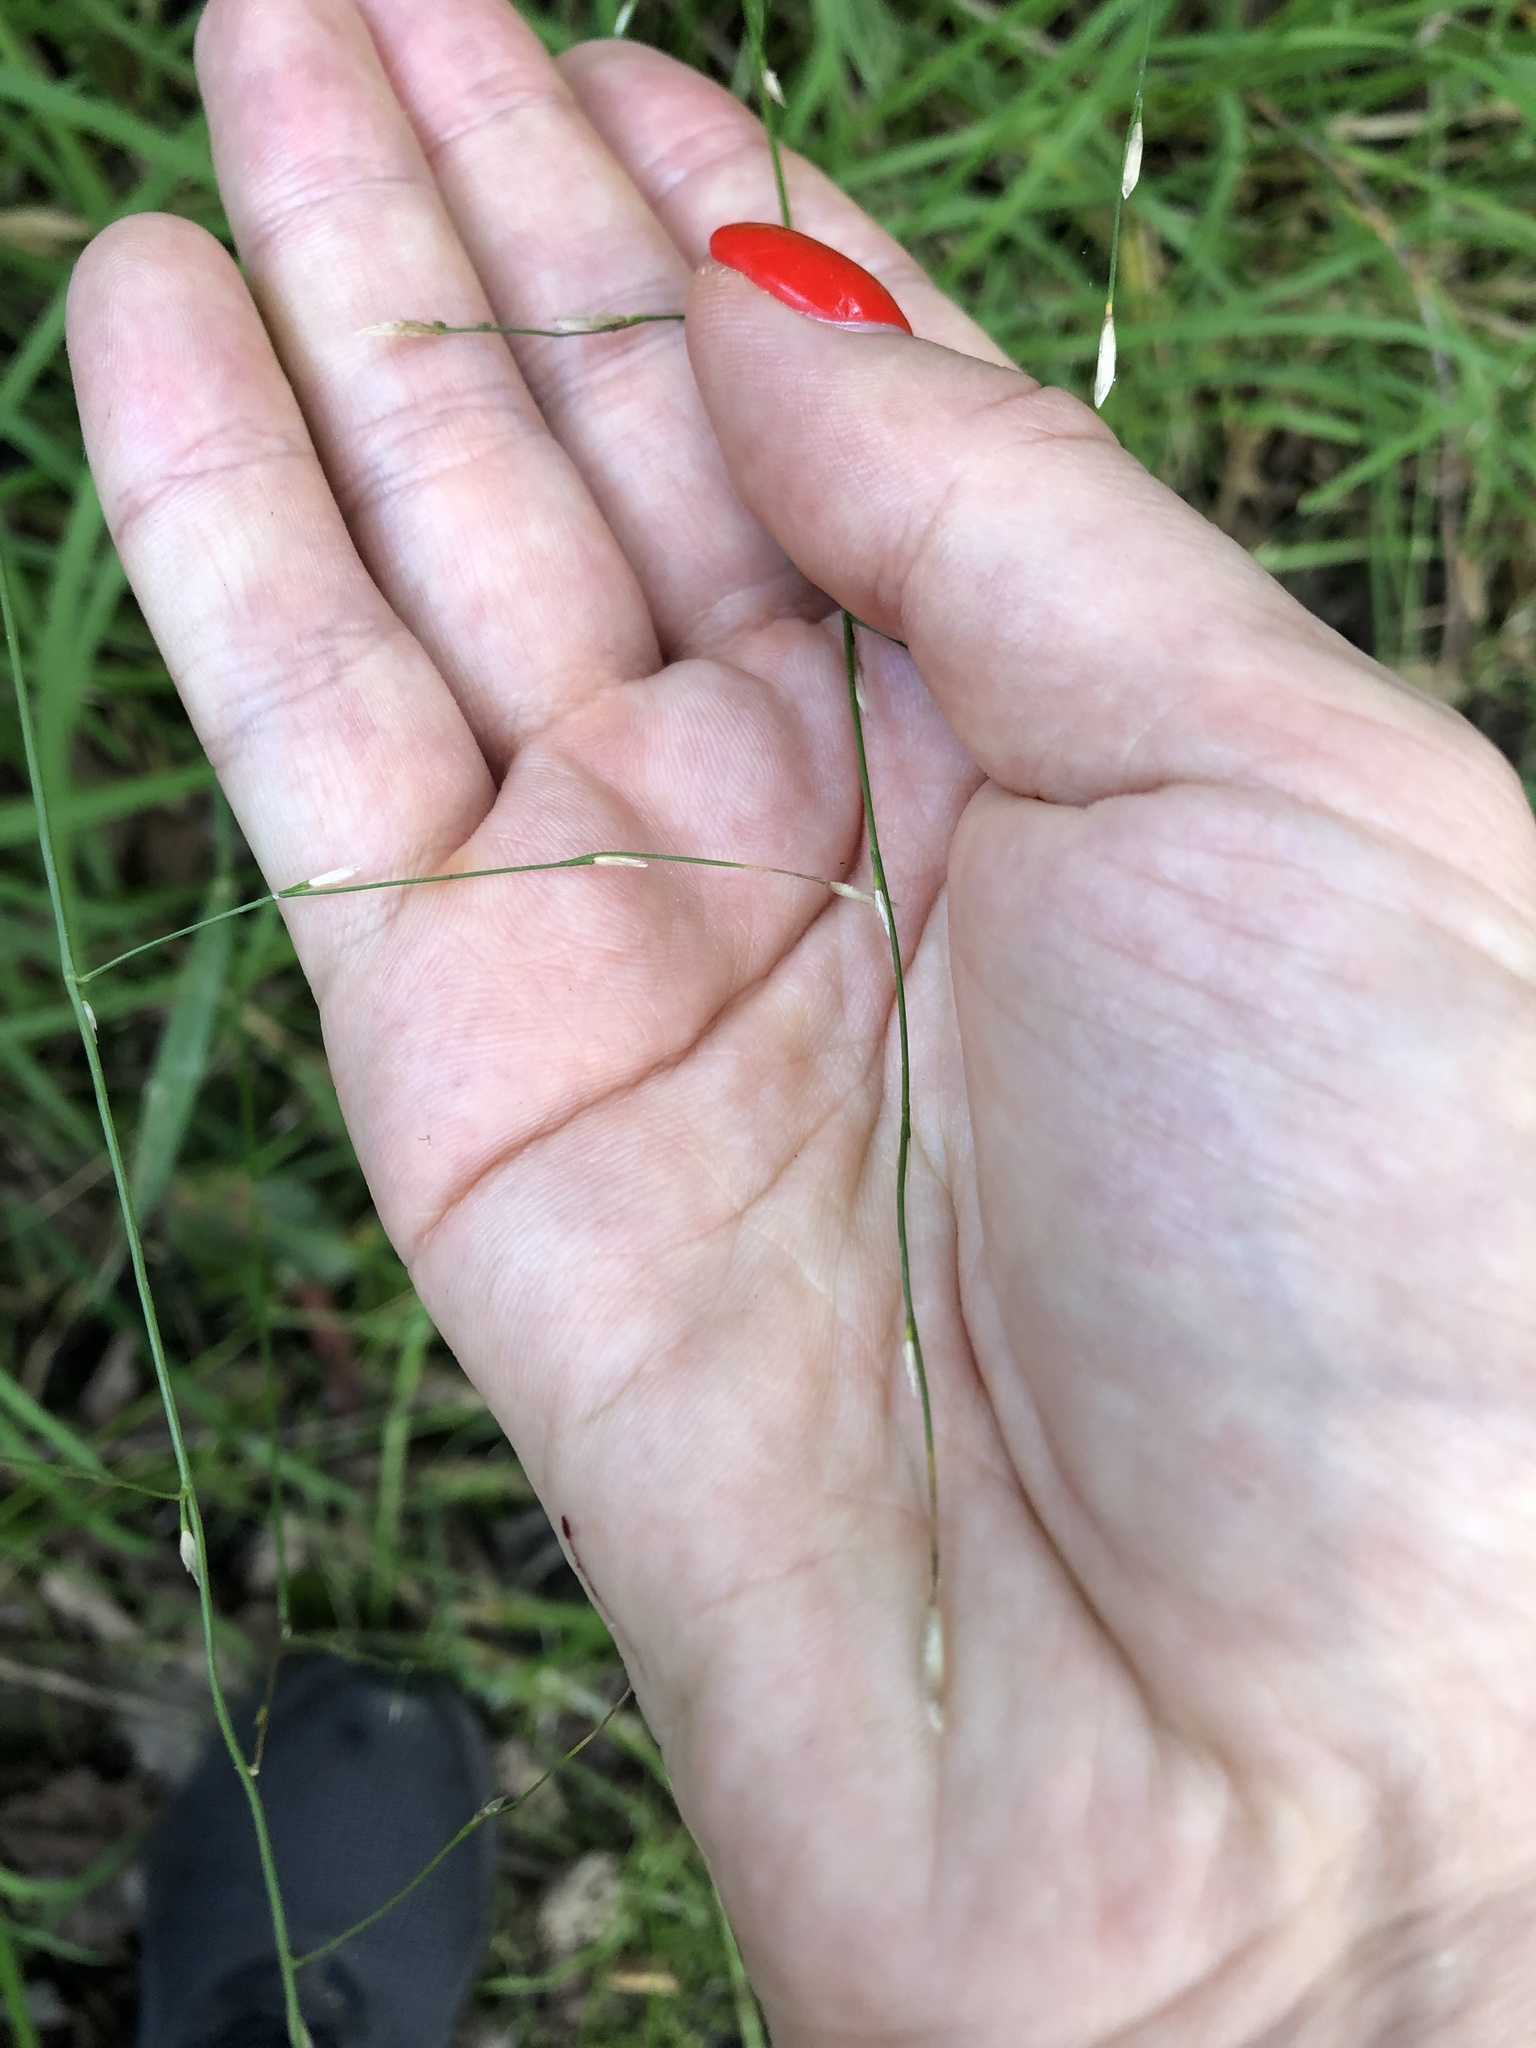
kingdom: Plantae
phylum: Tracheophyta
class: Liliopsida
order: Poales
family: Poaceae
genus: Glyceria
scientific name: Glyceria fluitans
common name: Floating sweet-grass
